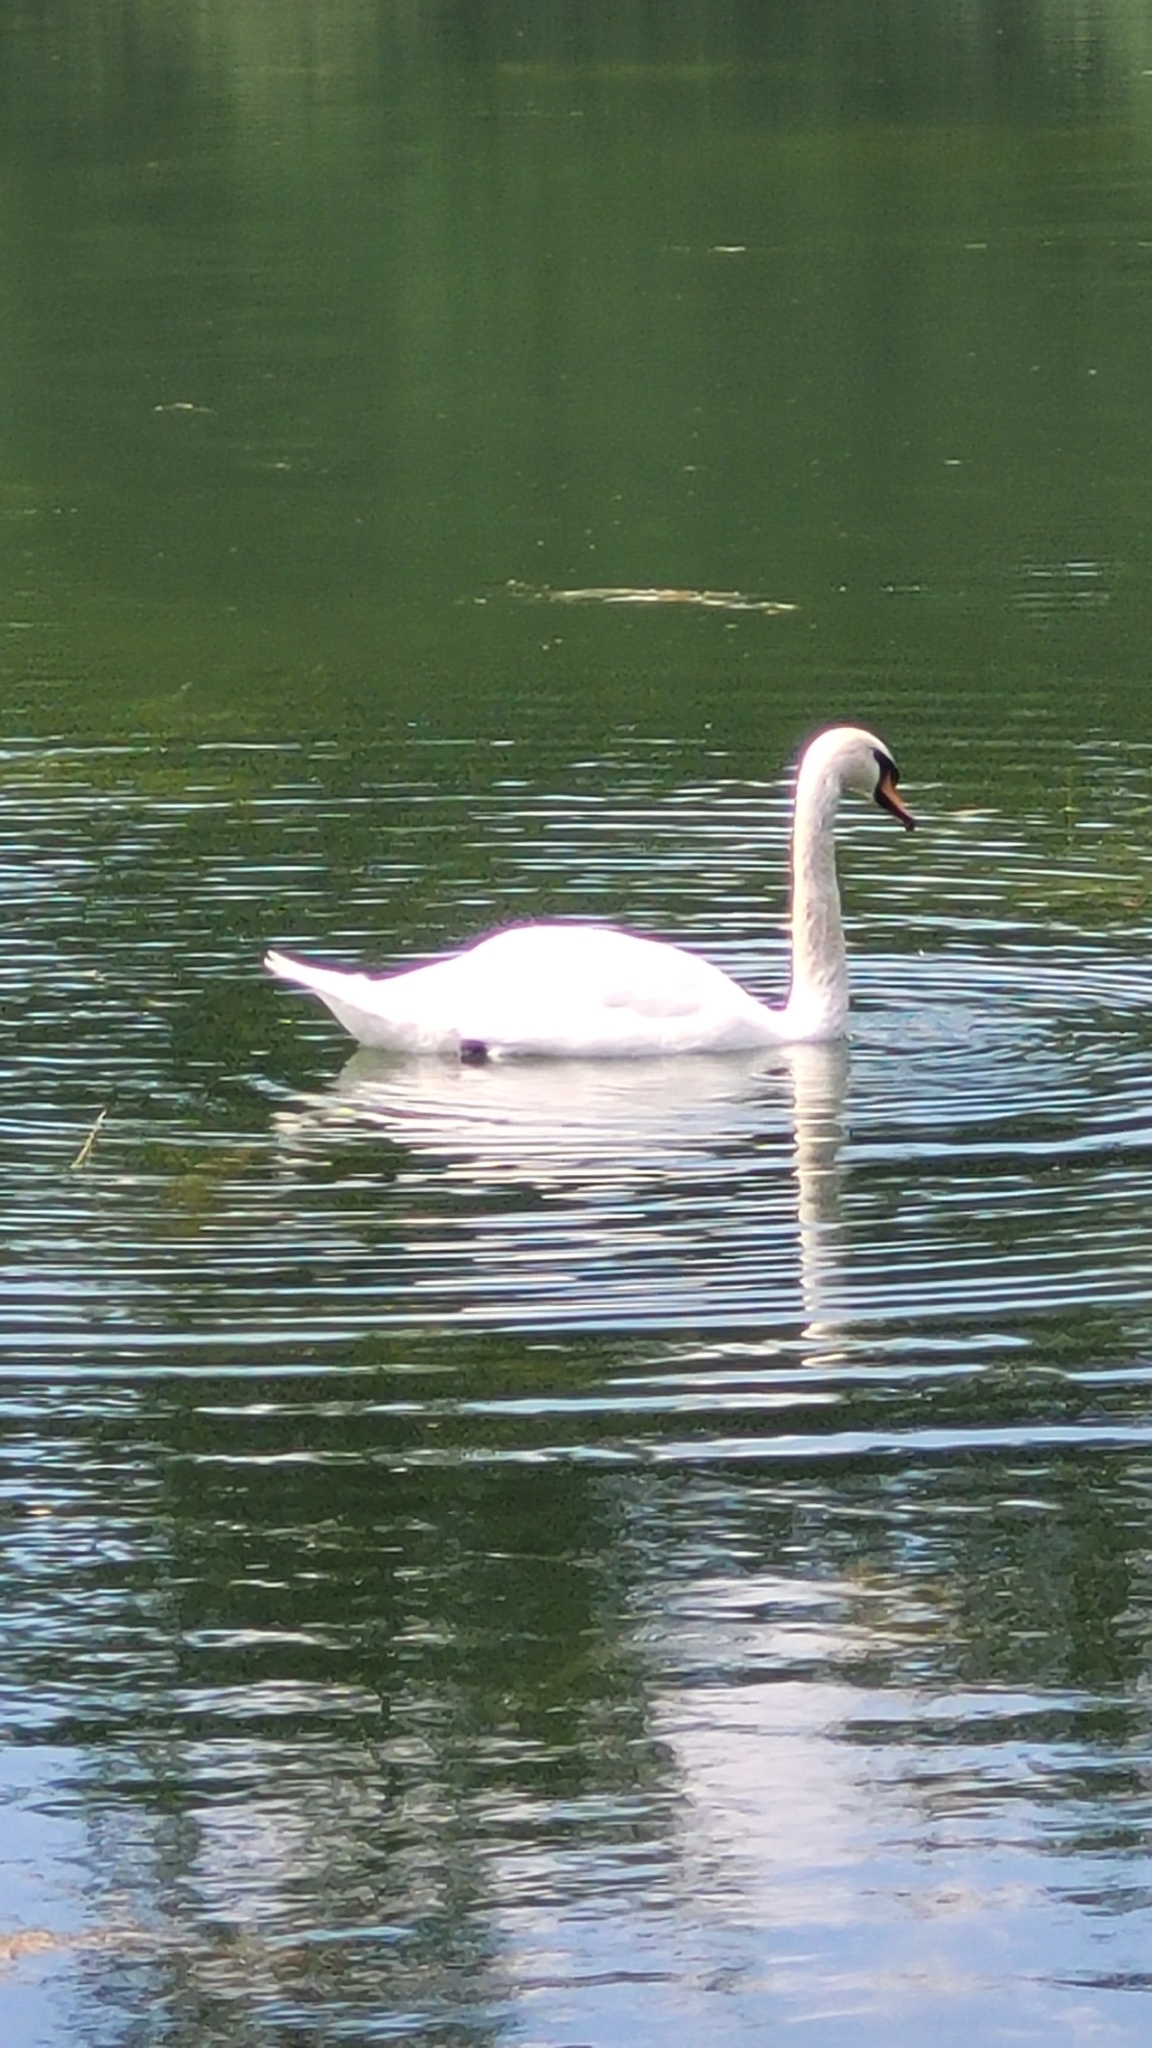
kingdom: Animalia
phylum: Chordata
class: Aves
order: Anseriformes
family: Anatidae
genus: Cygnus
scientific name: Cygnus olor
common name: Mute swan
